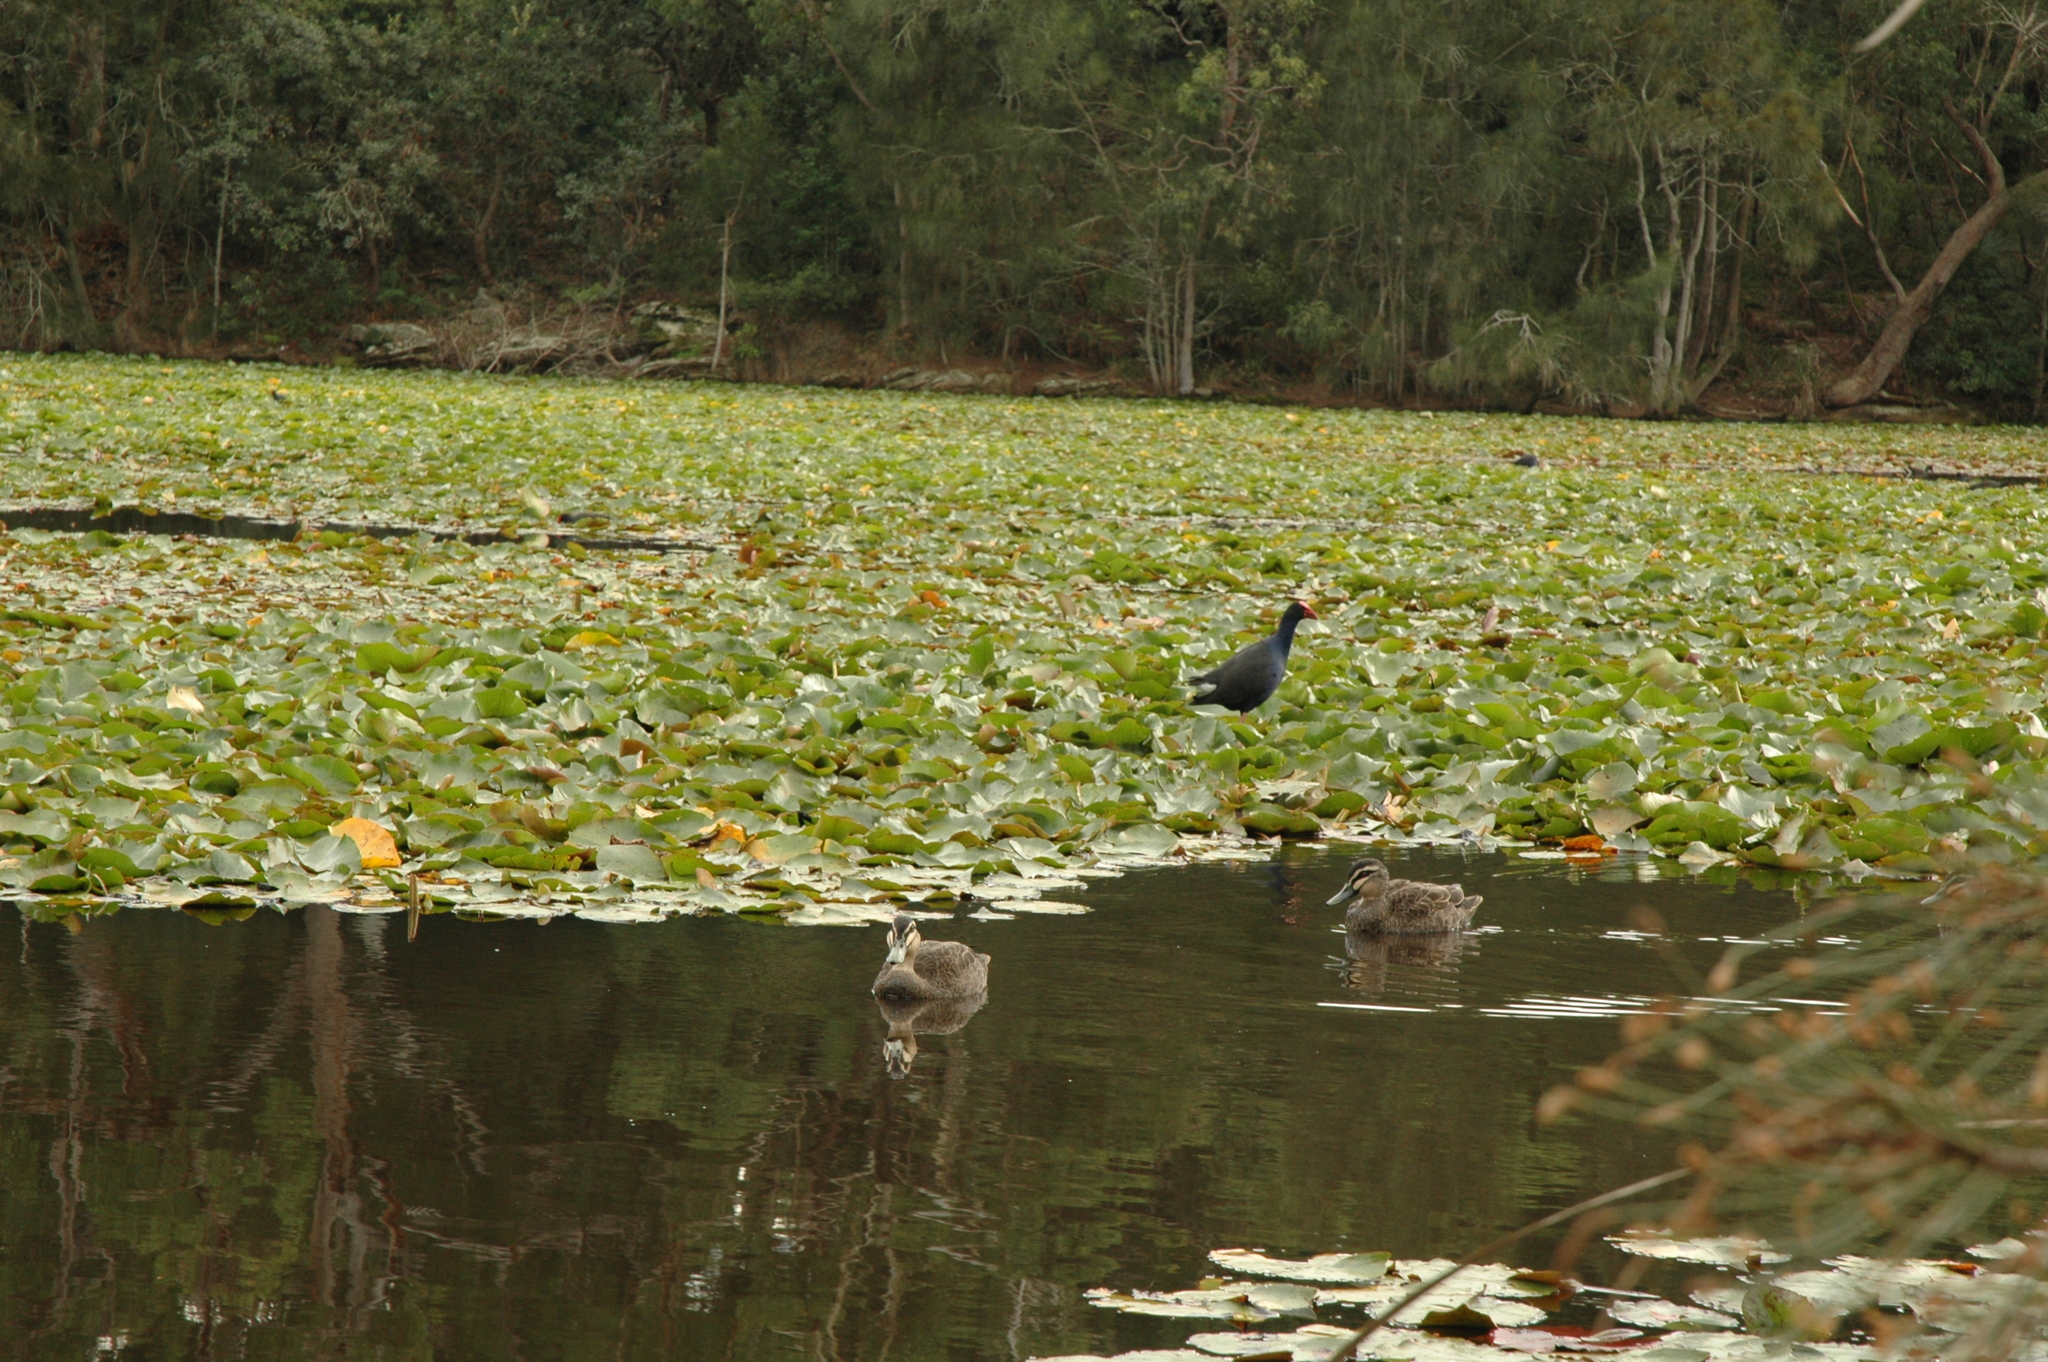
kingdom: Animalia
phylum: Chordata
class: Aves
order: Anseriformes
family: Anatidae
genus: Anas
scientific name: Anas superciliosa
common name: Pacific black duck
